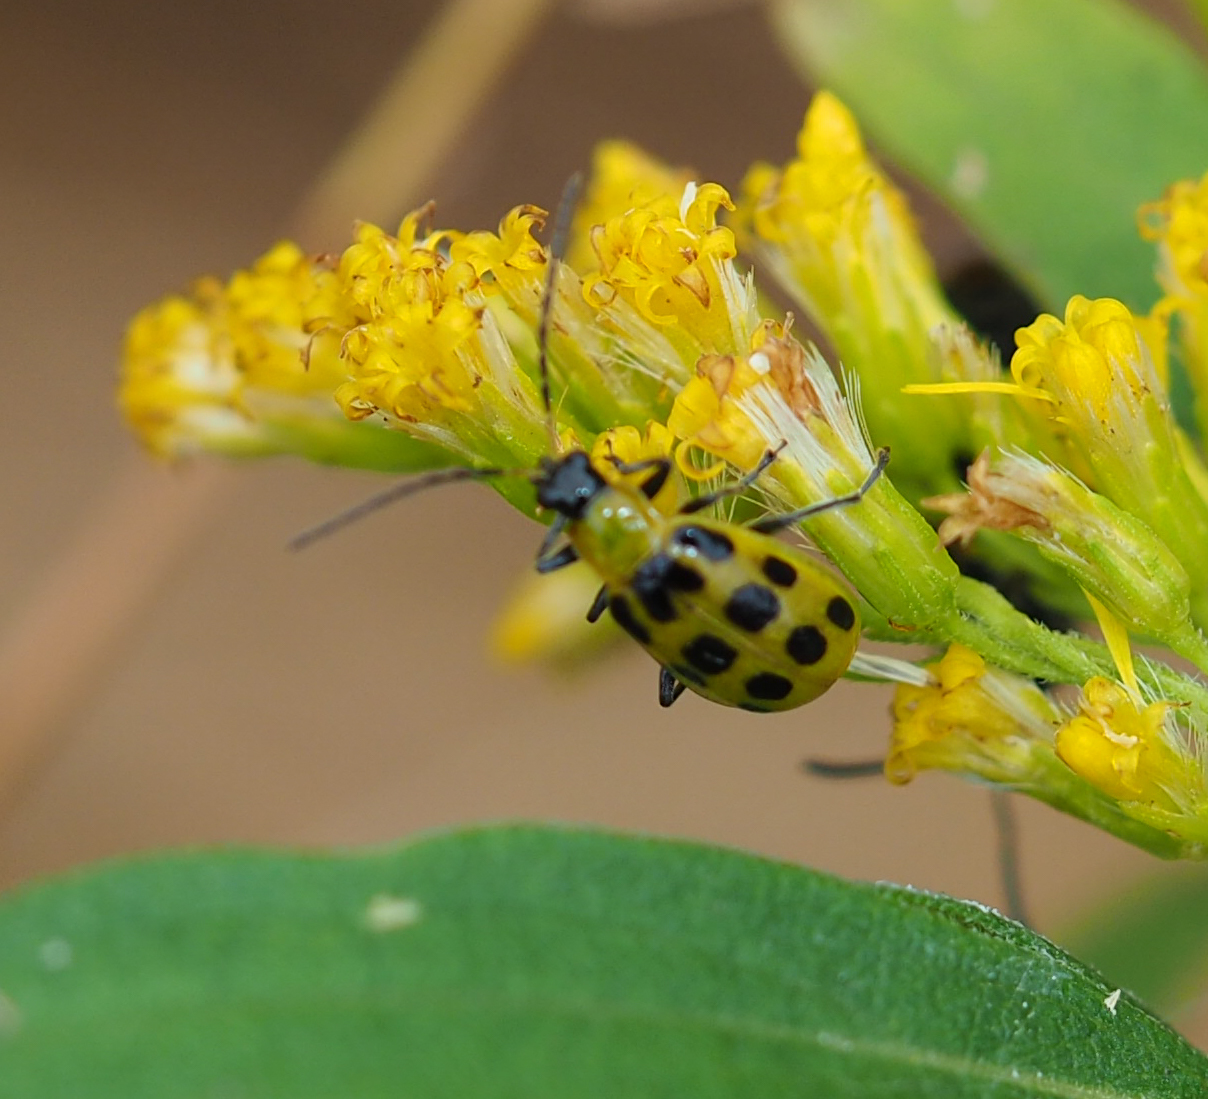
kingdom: Animalia
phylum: Arthropoda
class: Insecta
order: Coleoptera
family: Chrysomelidae
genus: Diabrotica
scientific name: Diabrotica undecimpunctata
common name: Spotted cucumber beetle
